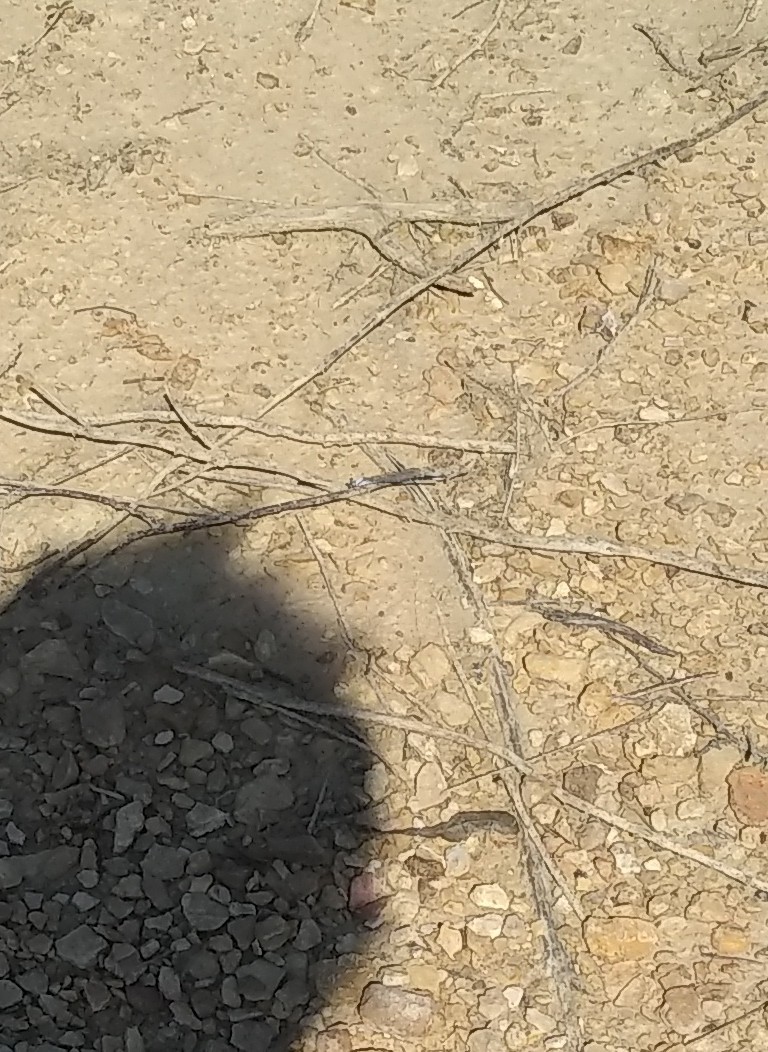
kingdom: Animalia
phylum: Arthropoda
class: Insecta
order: Odonata
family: Coenagrionidae
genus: Argia
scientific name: Argia moesta
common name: Powdered dancer
